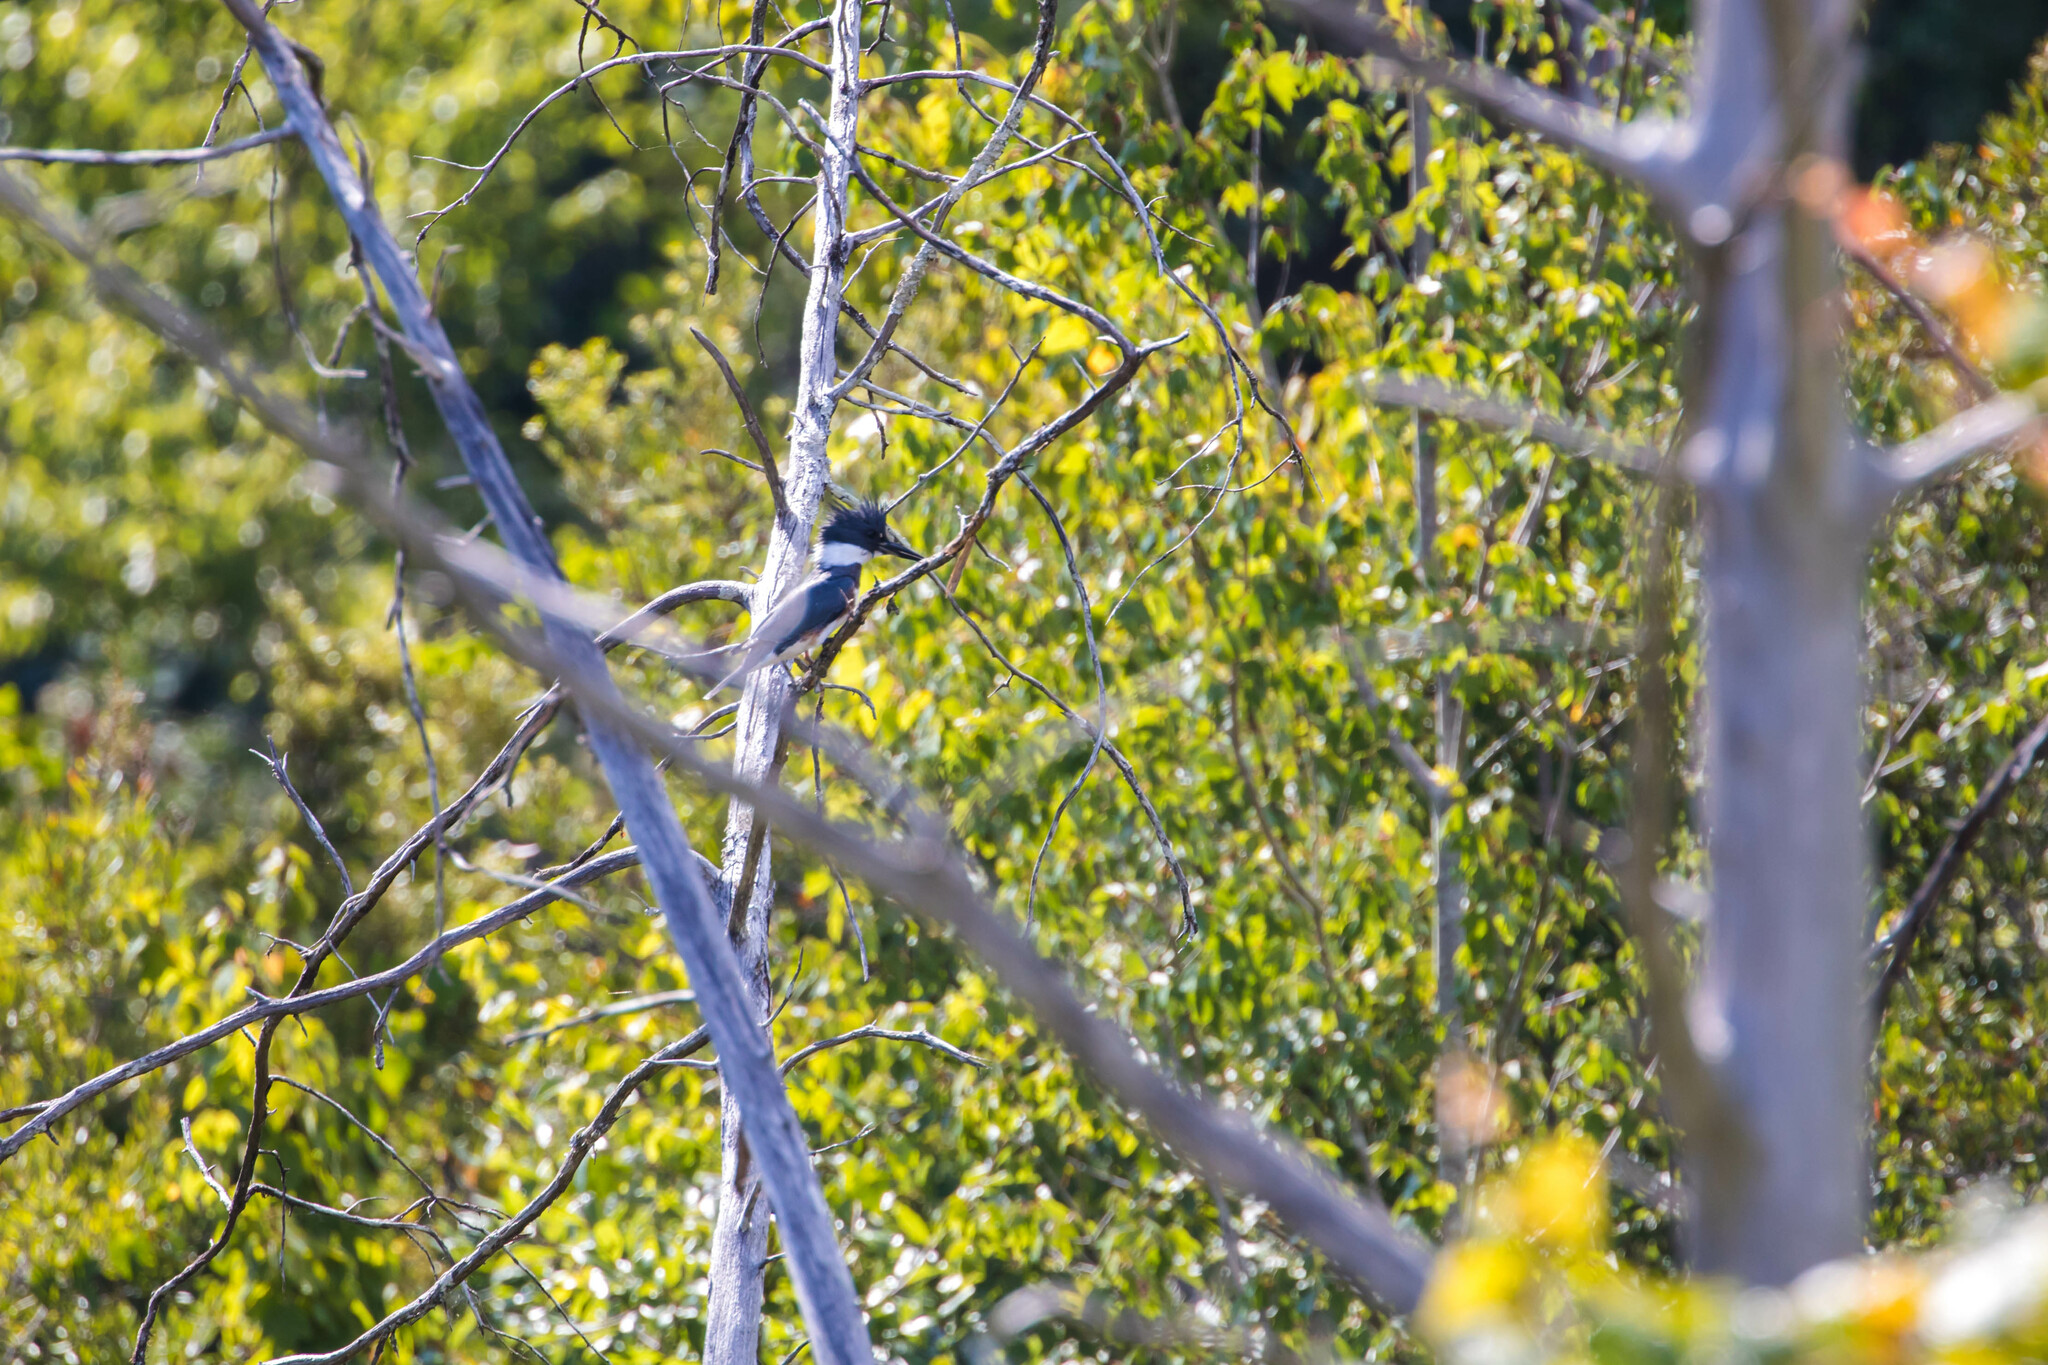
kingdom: Animalia
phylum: Chordata
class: Aves
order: Coraciiformes
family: Alcedinidae
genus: Megaceryle
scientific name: Megaceryle alcyon
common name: Belted kingfisher
